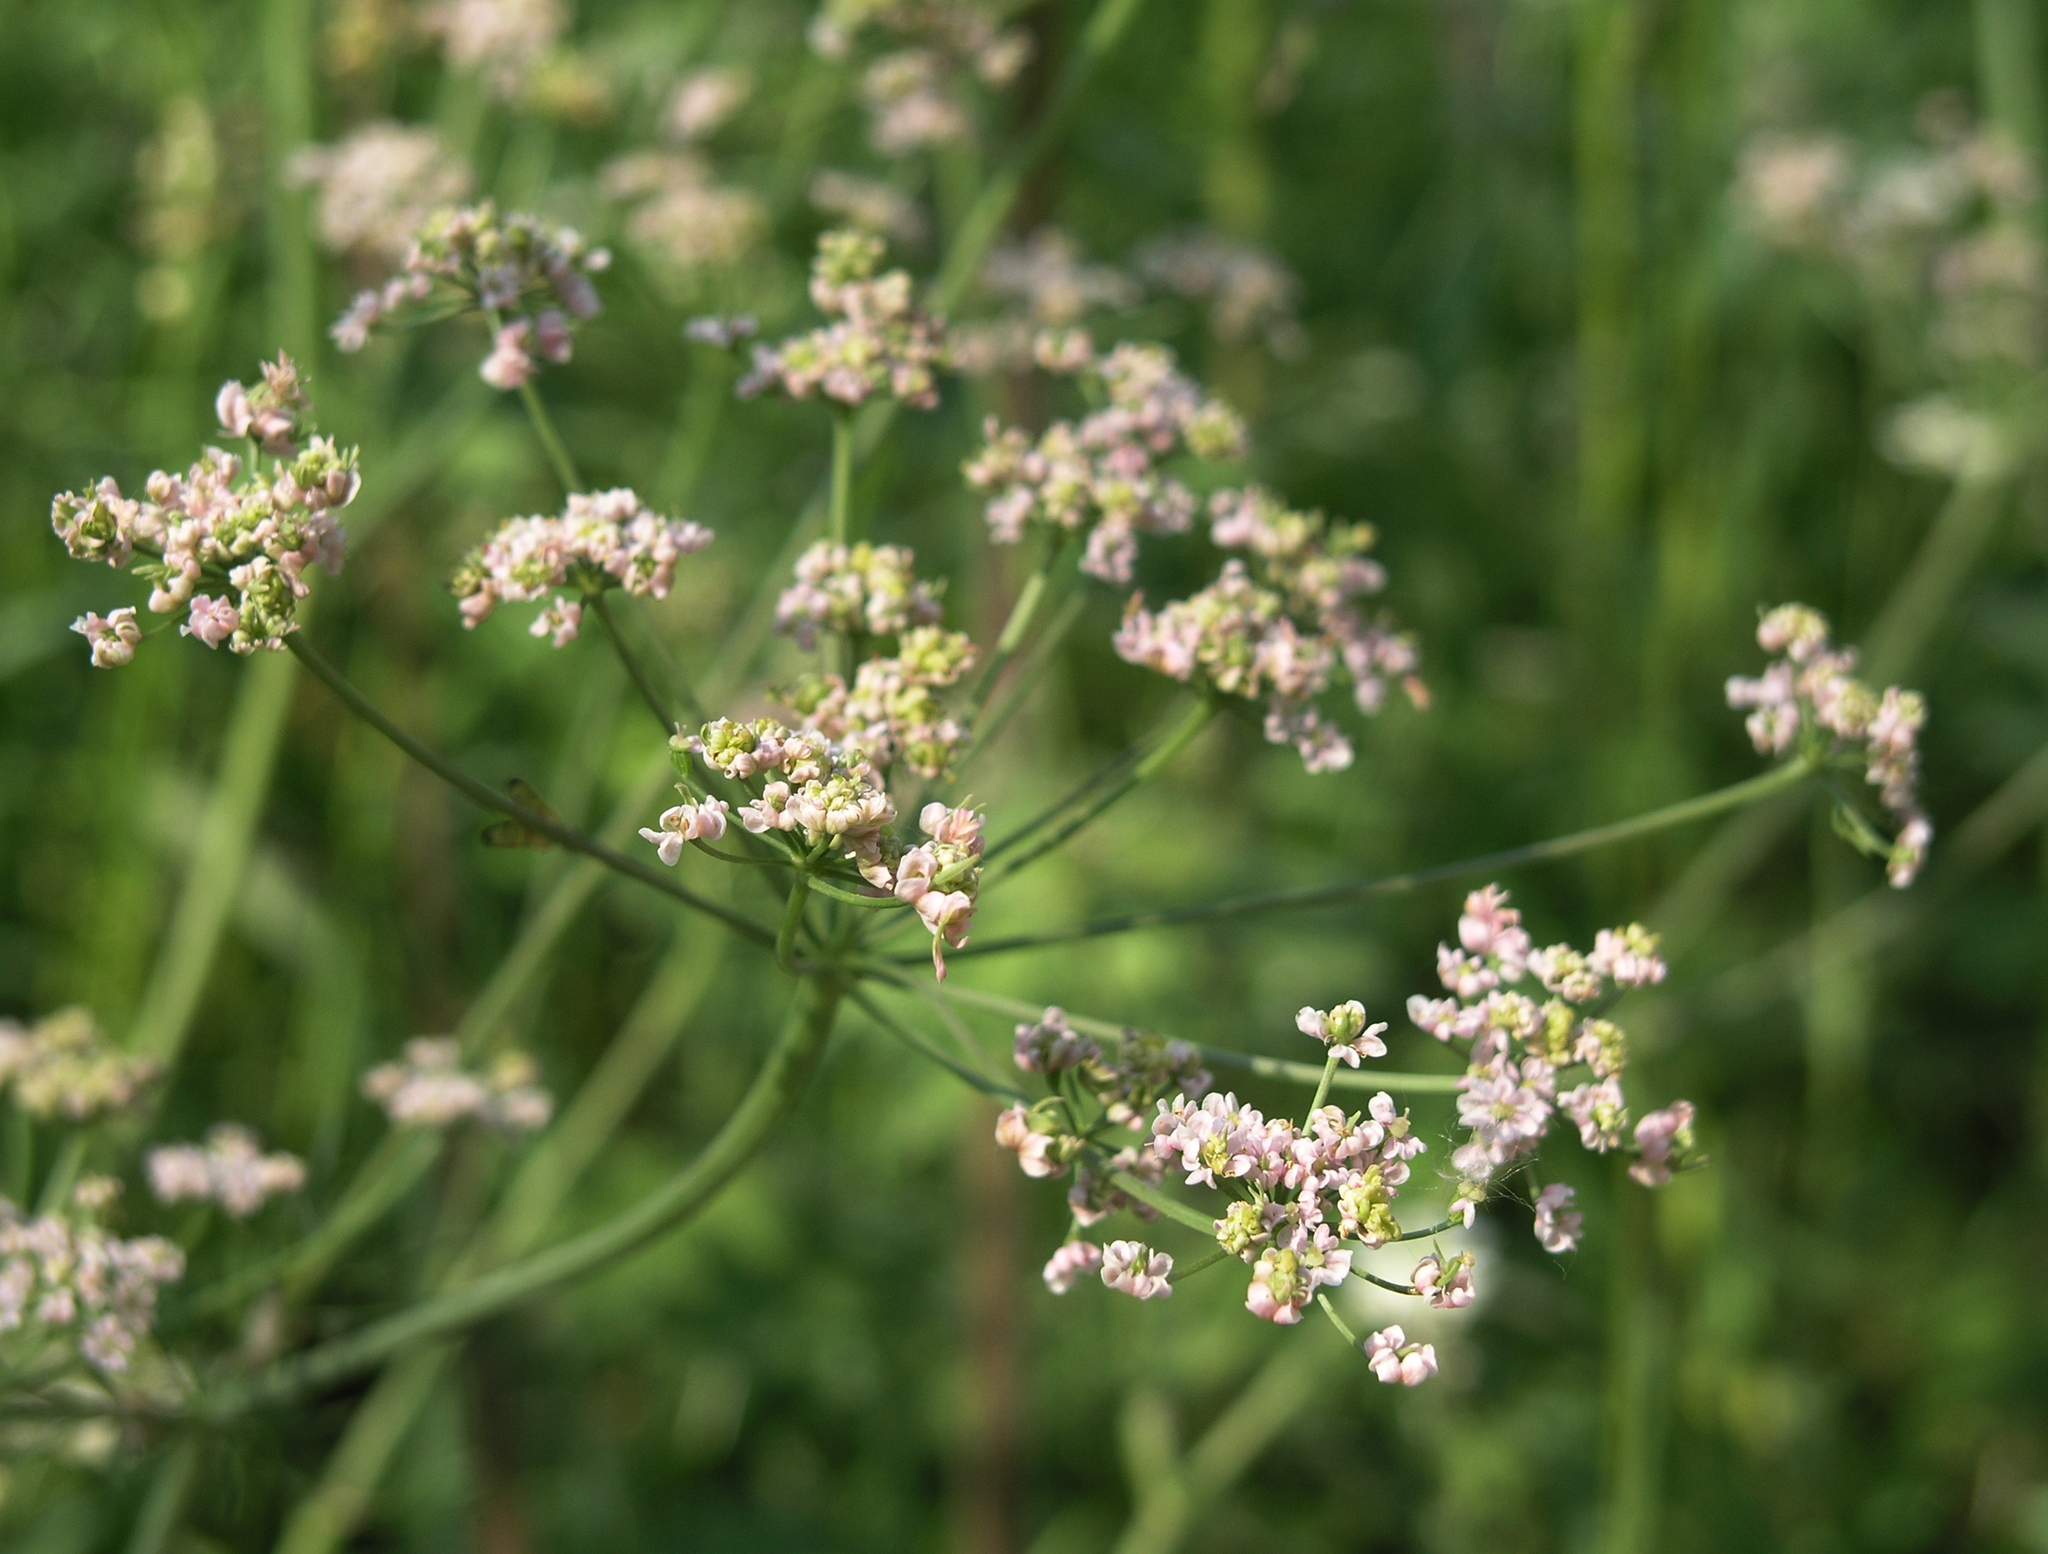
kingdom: Plantae
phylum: Tracheophyta
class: Magnoliopsida
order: Apiales
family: Apiaceae
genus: Carum
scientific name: Carum carvi
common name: Caraway
